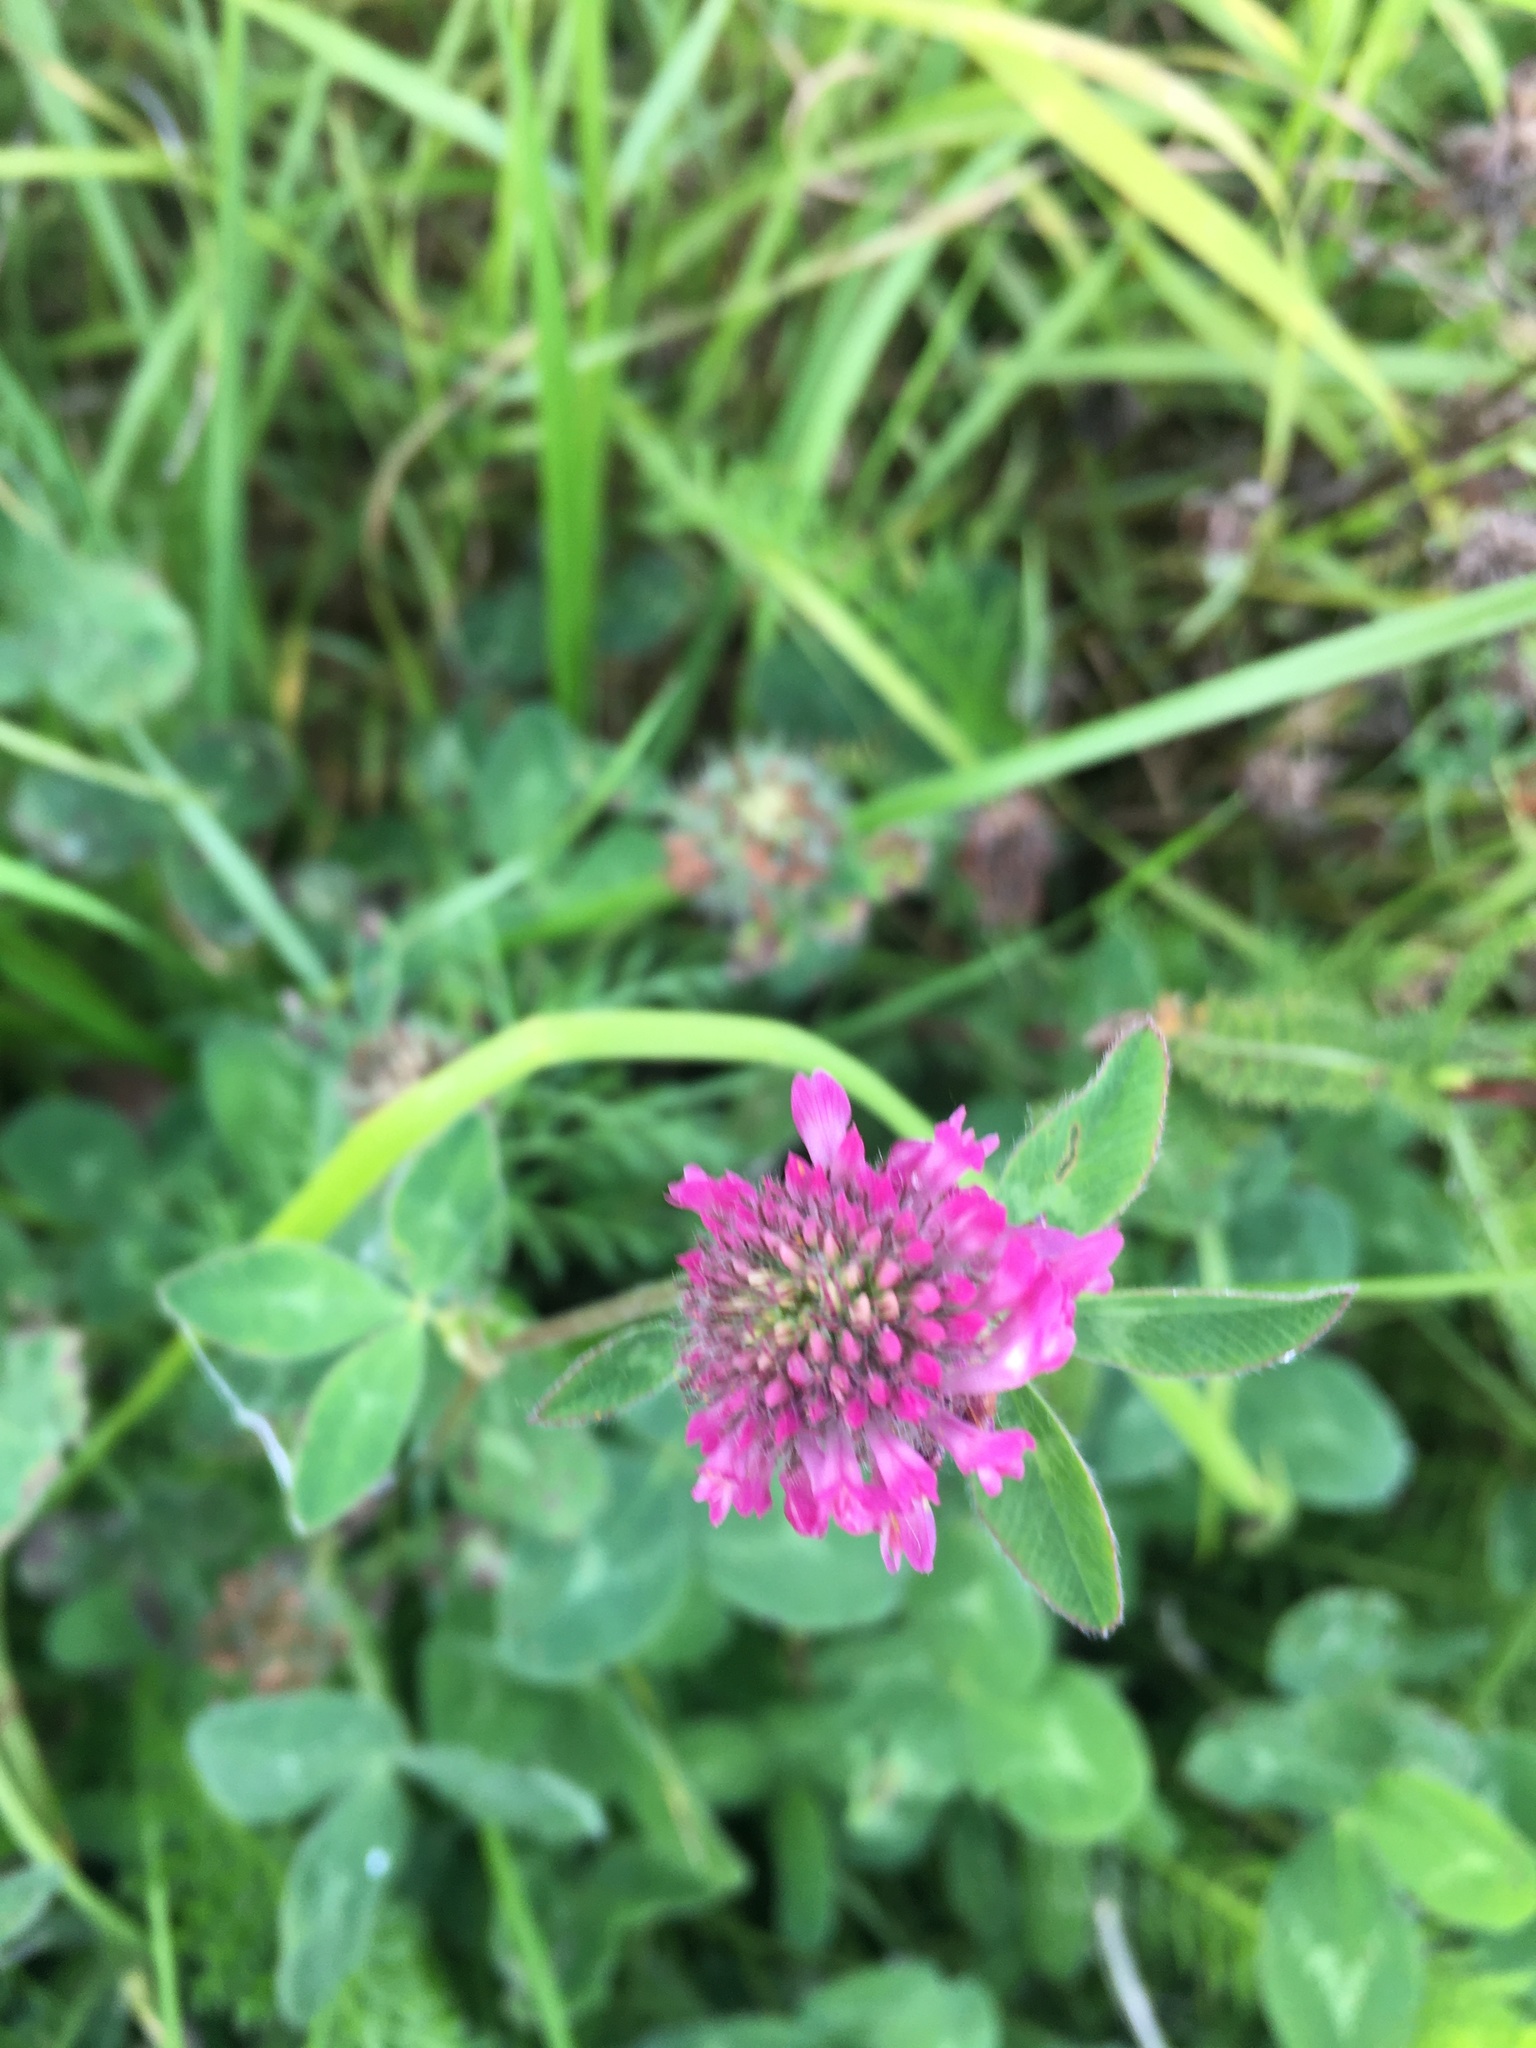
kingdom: Plantae
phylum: Tracheophyta
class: Magnoliopsida
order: Fabales
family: Fabaceae
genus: Trifolium
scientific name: Trifolium pratense
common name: Red clover
